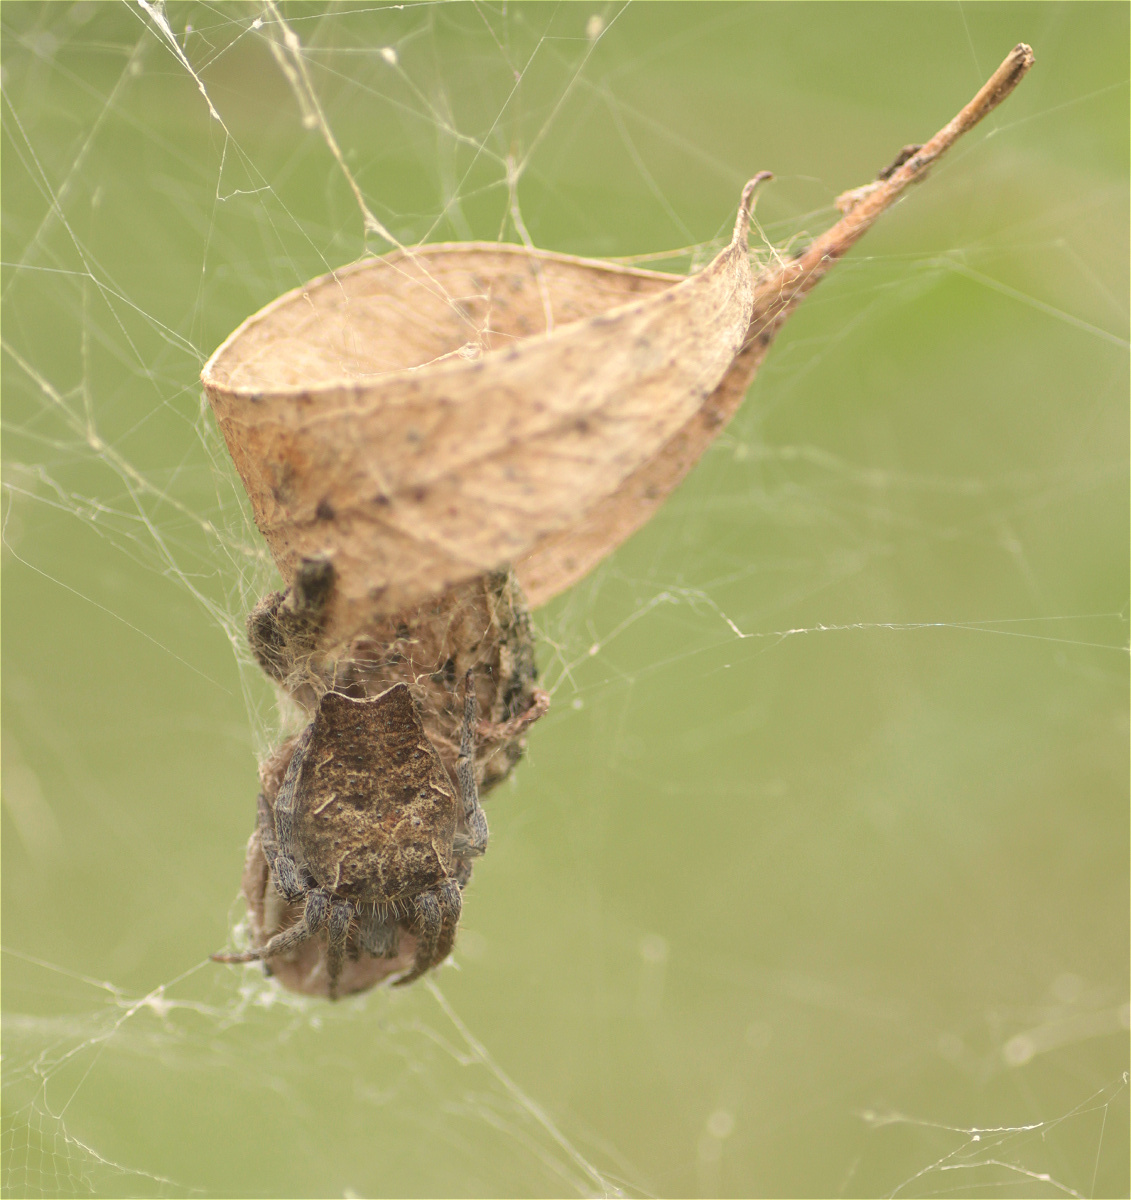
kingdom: Animalia
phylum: Arthropoda
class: Arachnida
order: Araneae
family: Araneidae
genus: Cyrtophora
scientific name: Cyrtophora citricola
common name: Orb weavers
